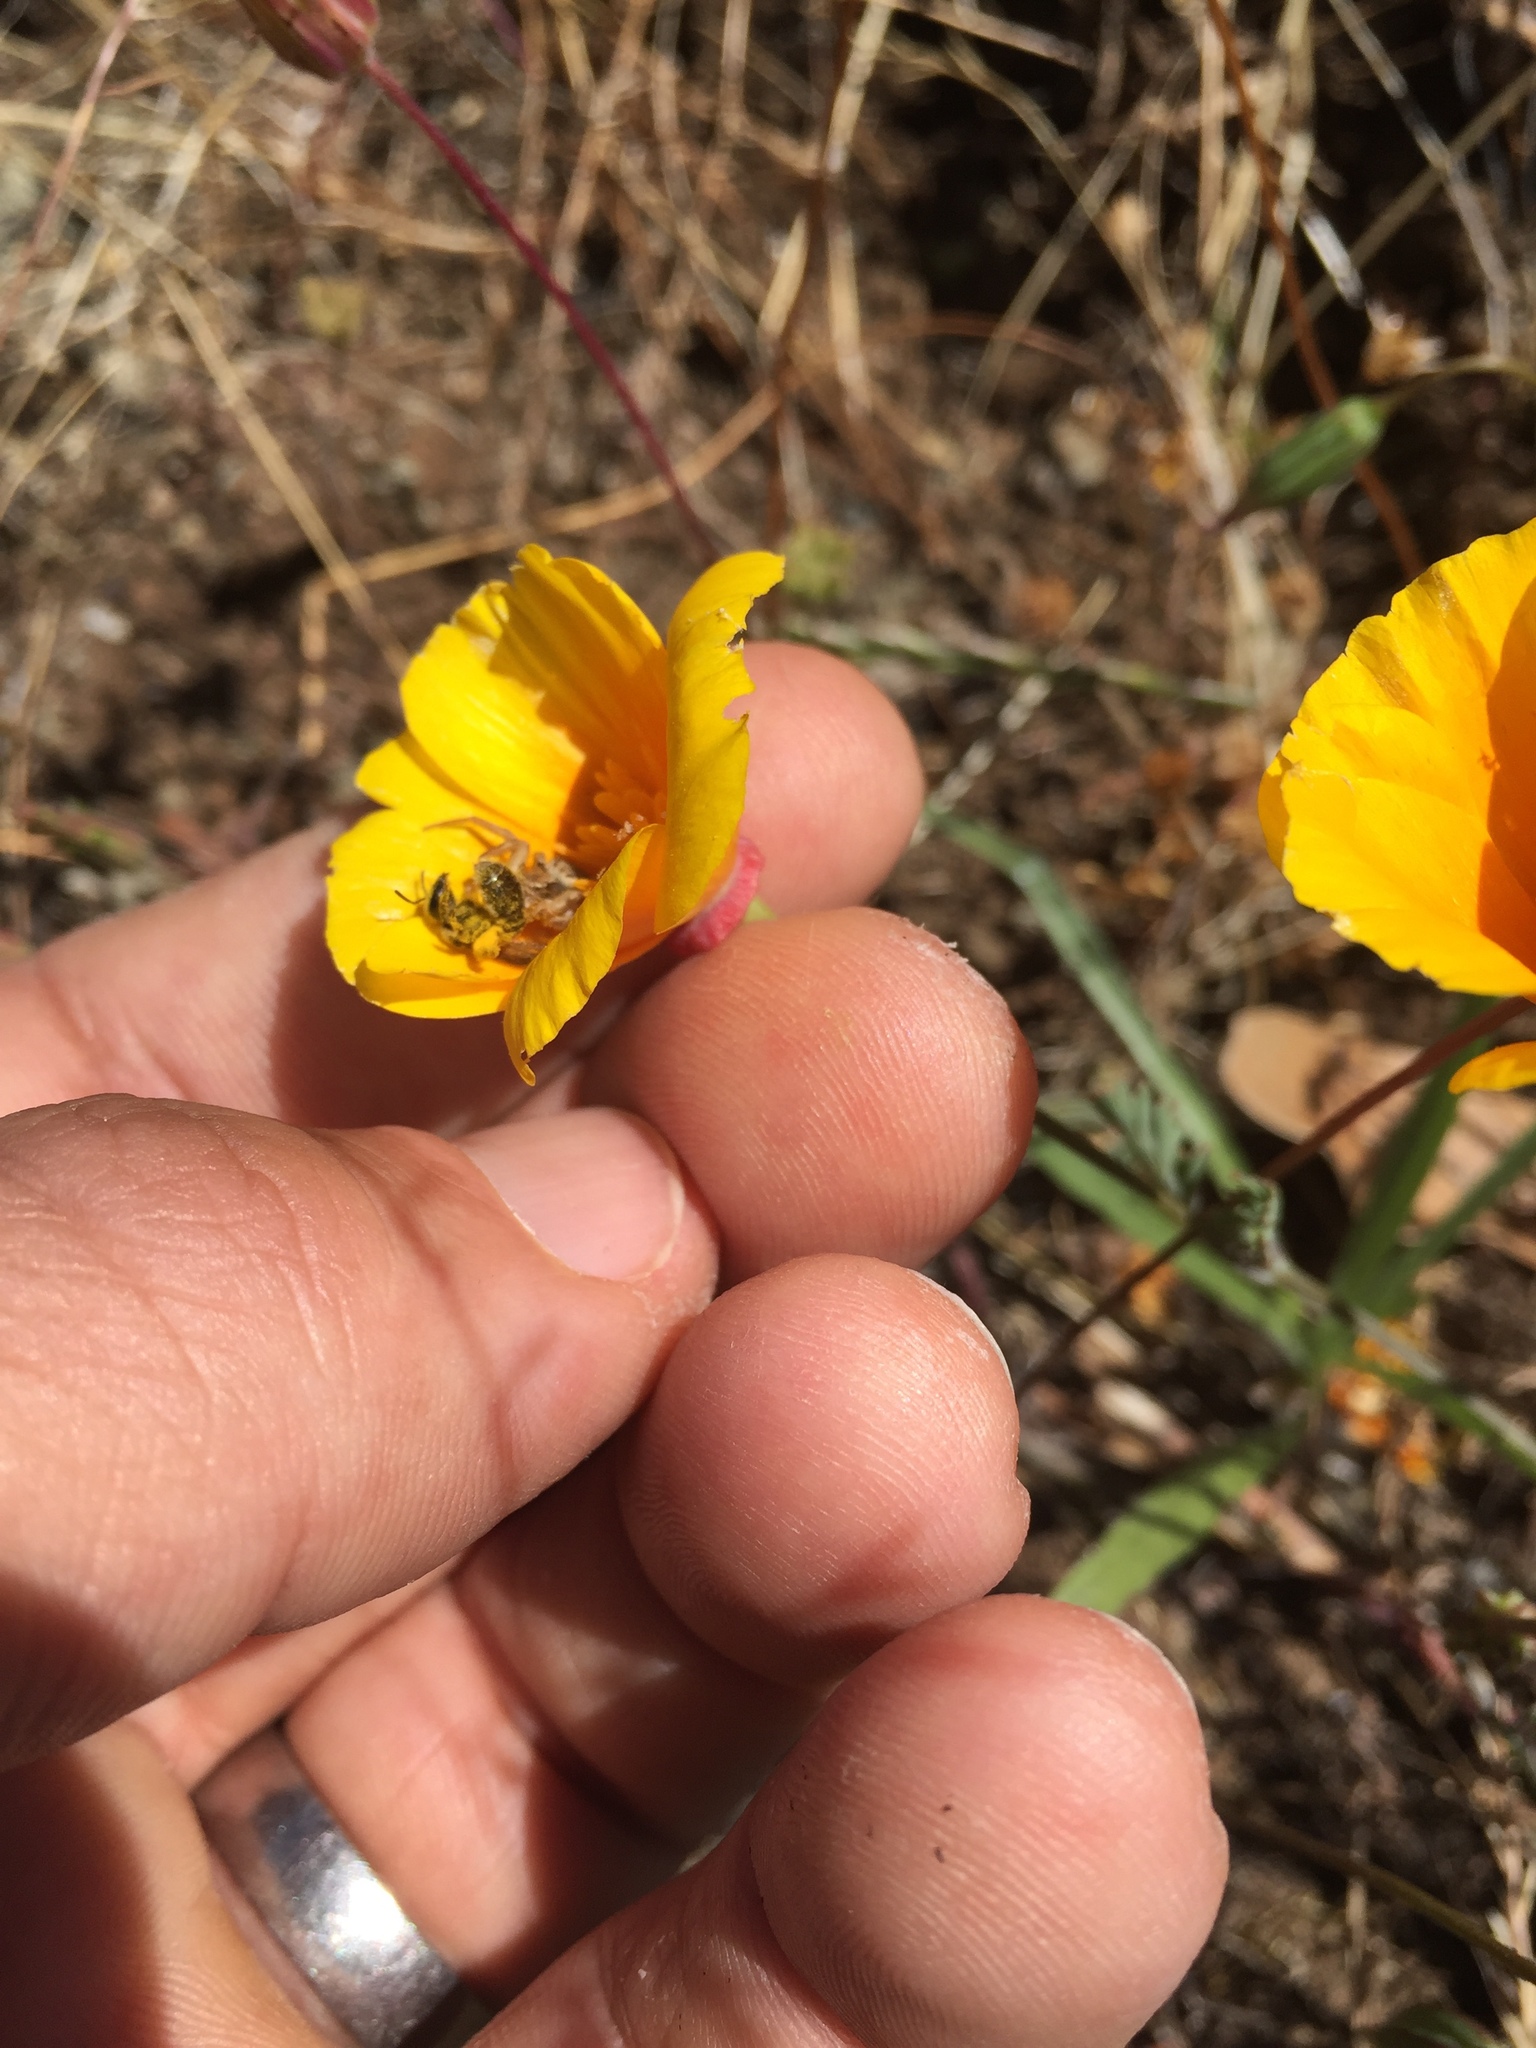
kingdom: Plantae
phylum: Tracheophyta
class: Magnoliopsida
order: Ranunculales
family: Papaveraceae
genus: Eschscholzia
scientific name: Eschscholzia californica
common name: California poppy
